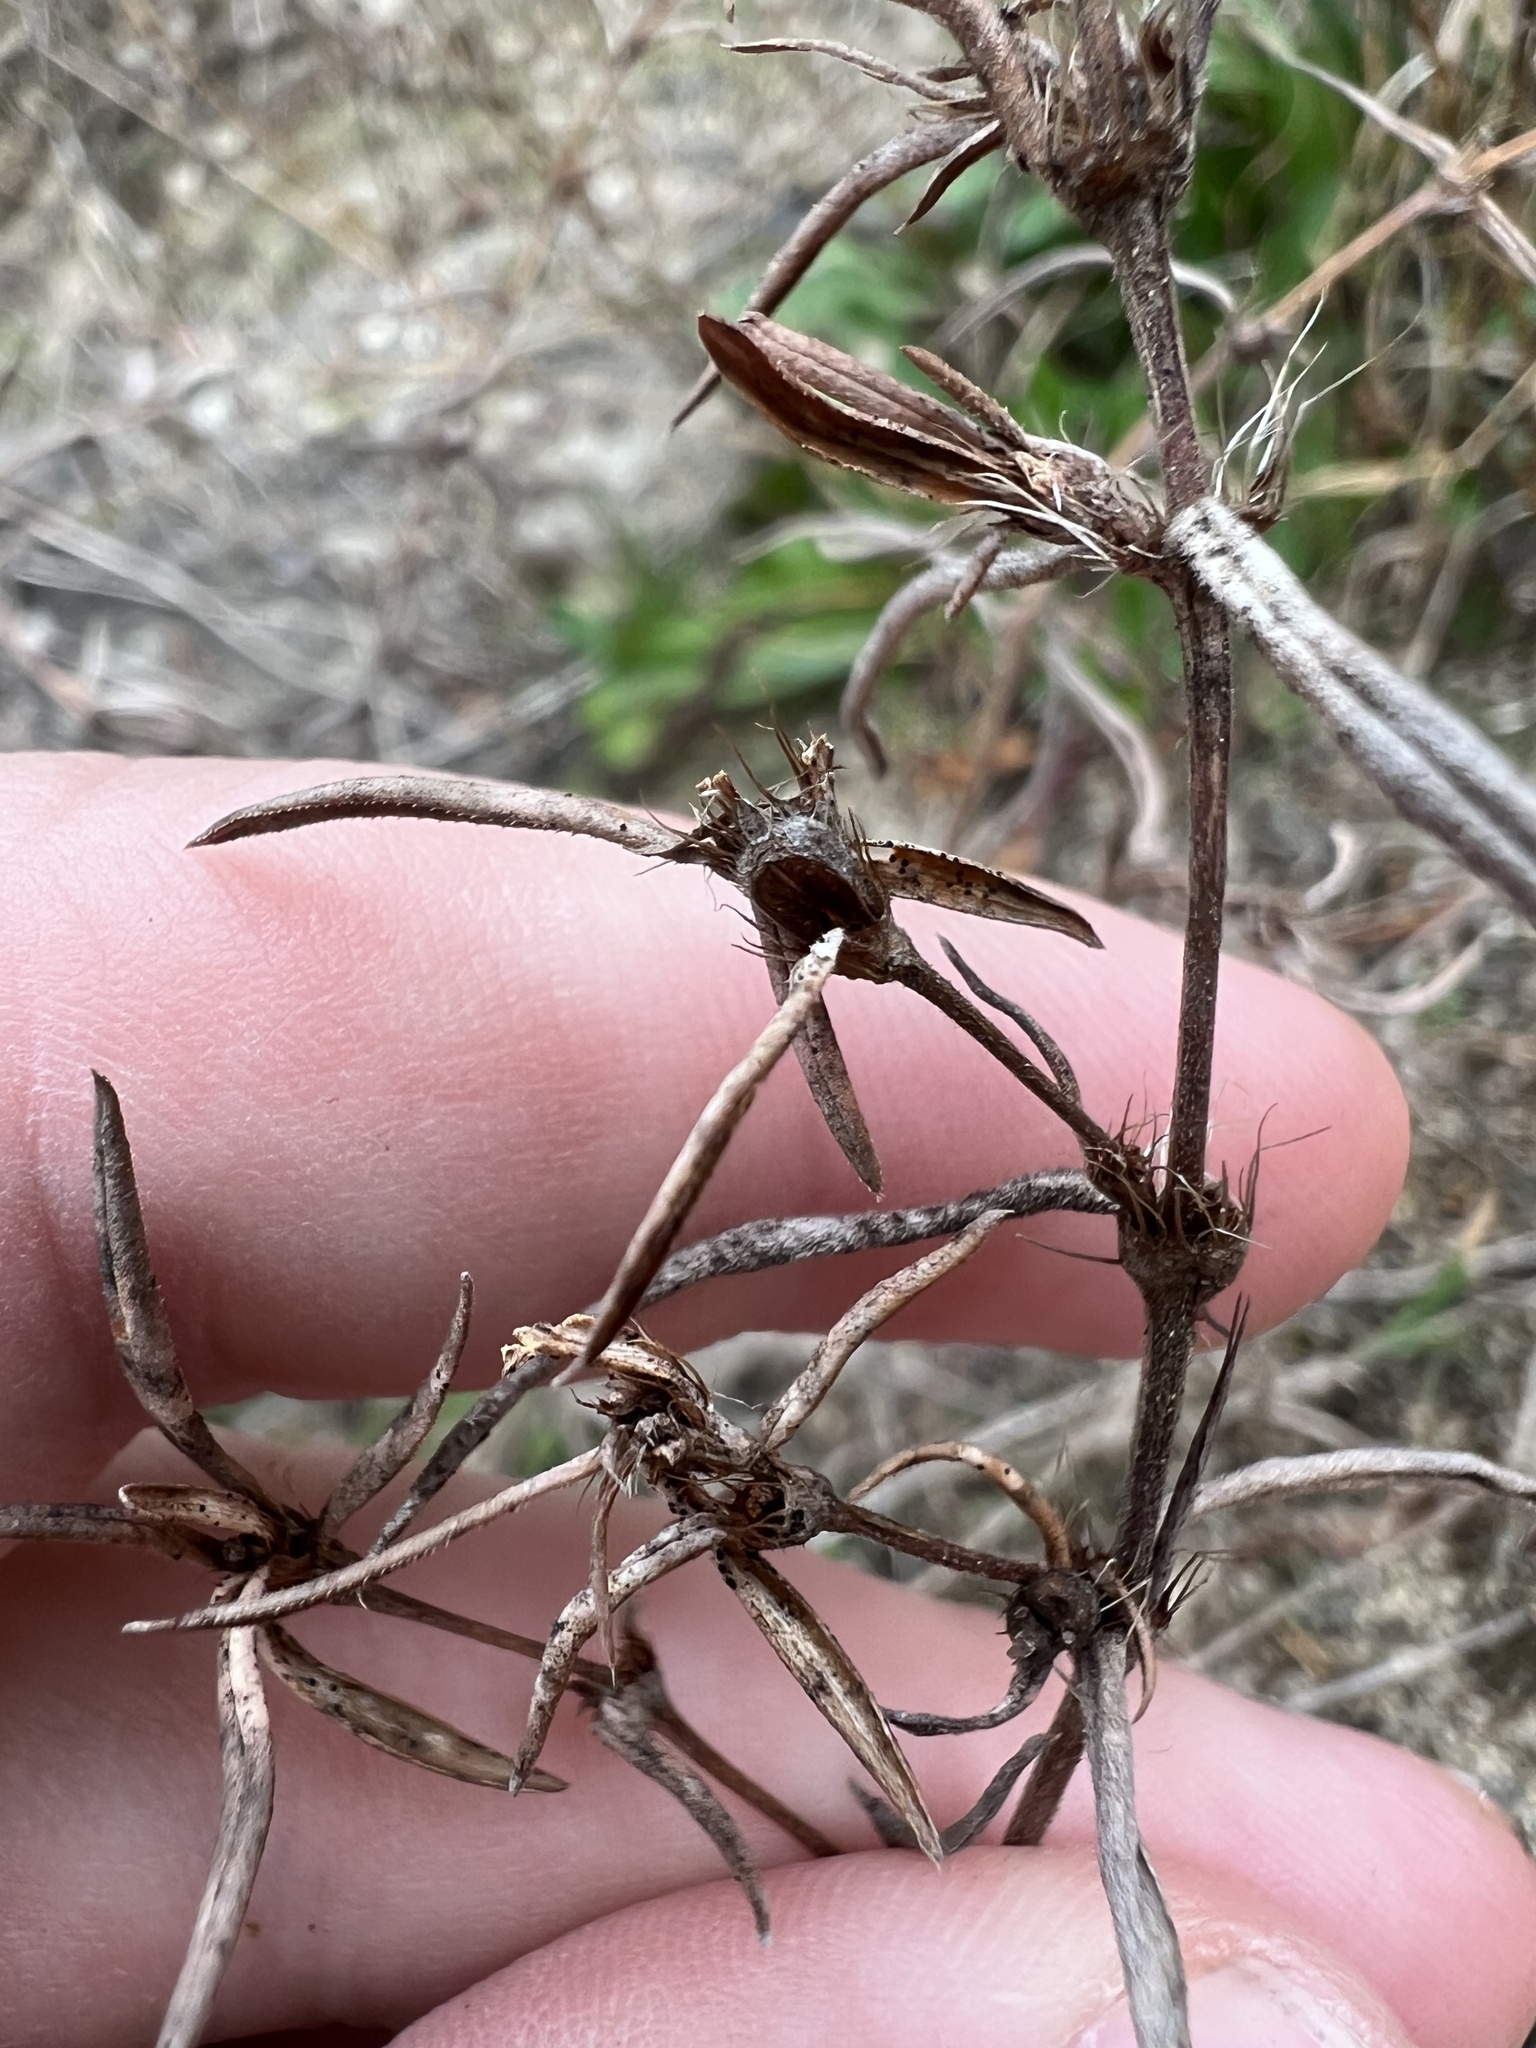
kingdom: Plantae
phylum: Tracheophyta
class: Magnoliopsida
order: Gentianales
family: Rubiaceae
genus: Hexasepalum
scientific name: Hexasepalum teres
